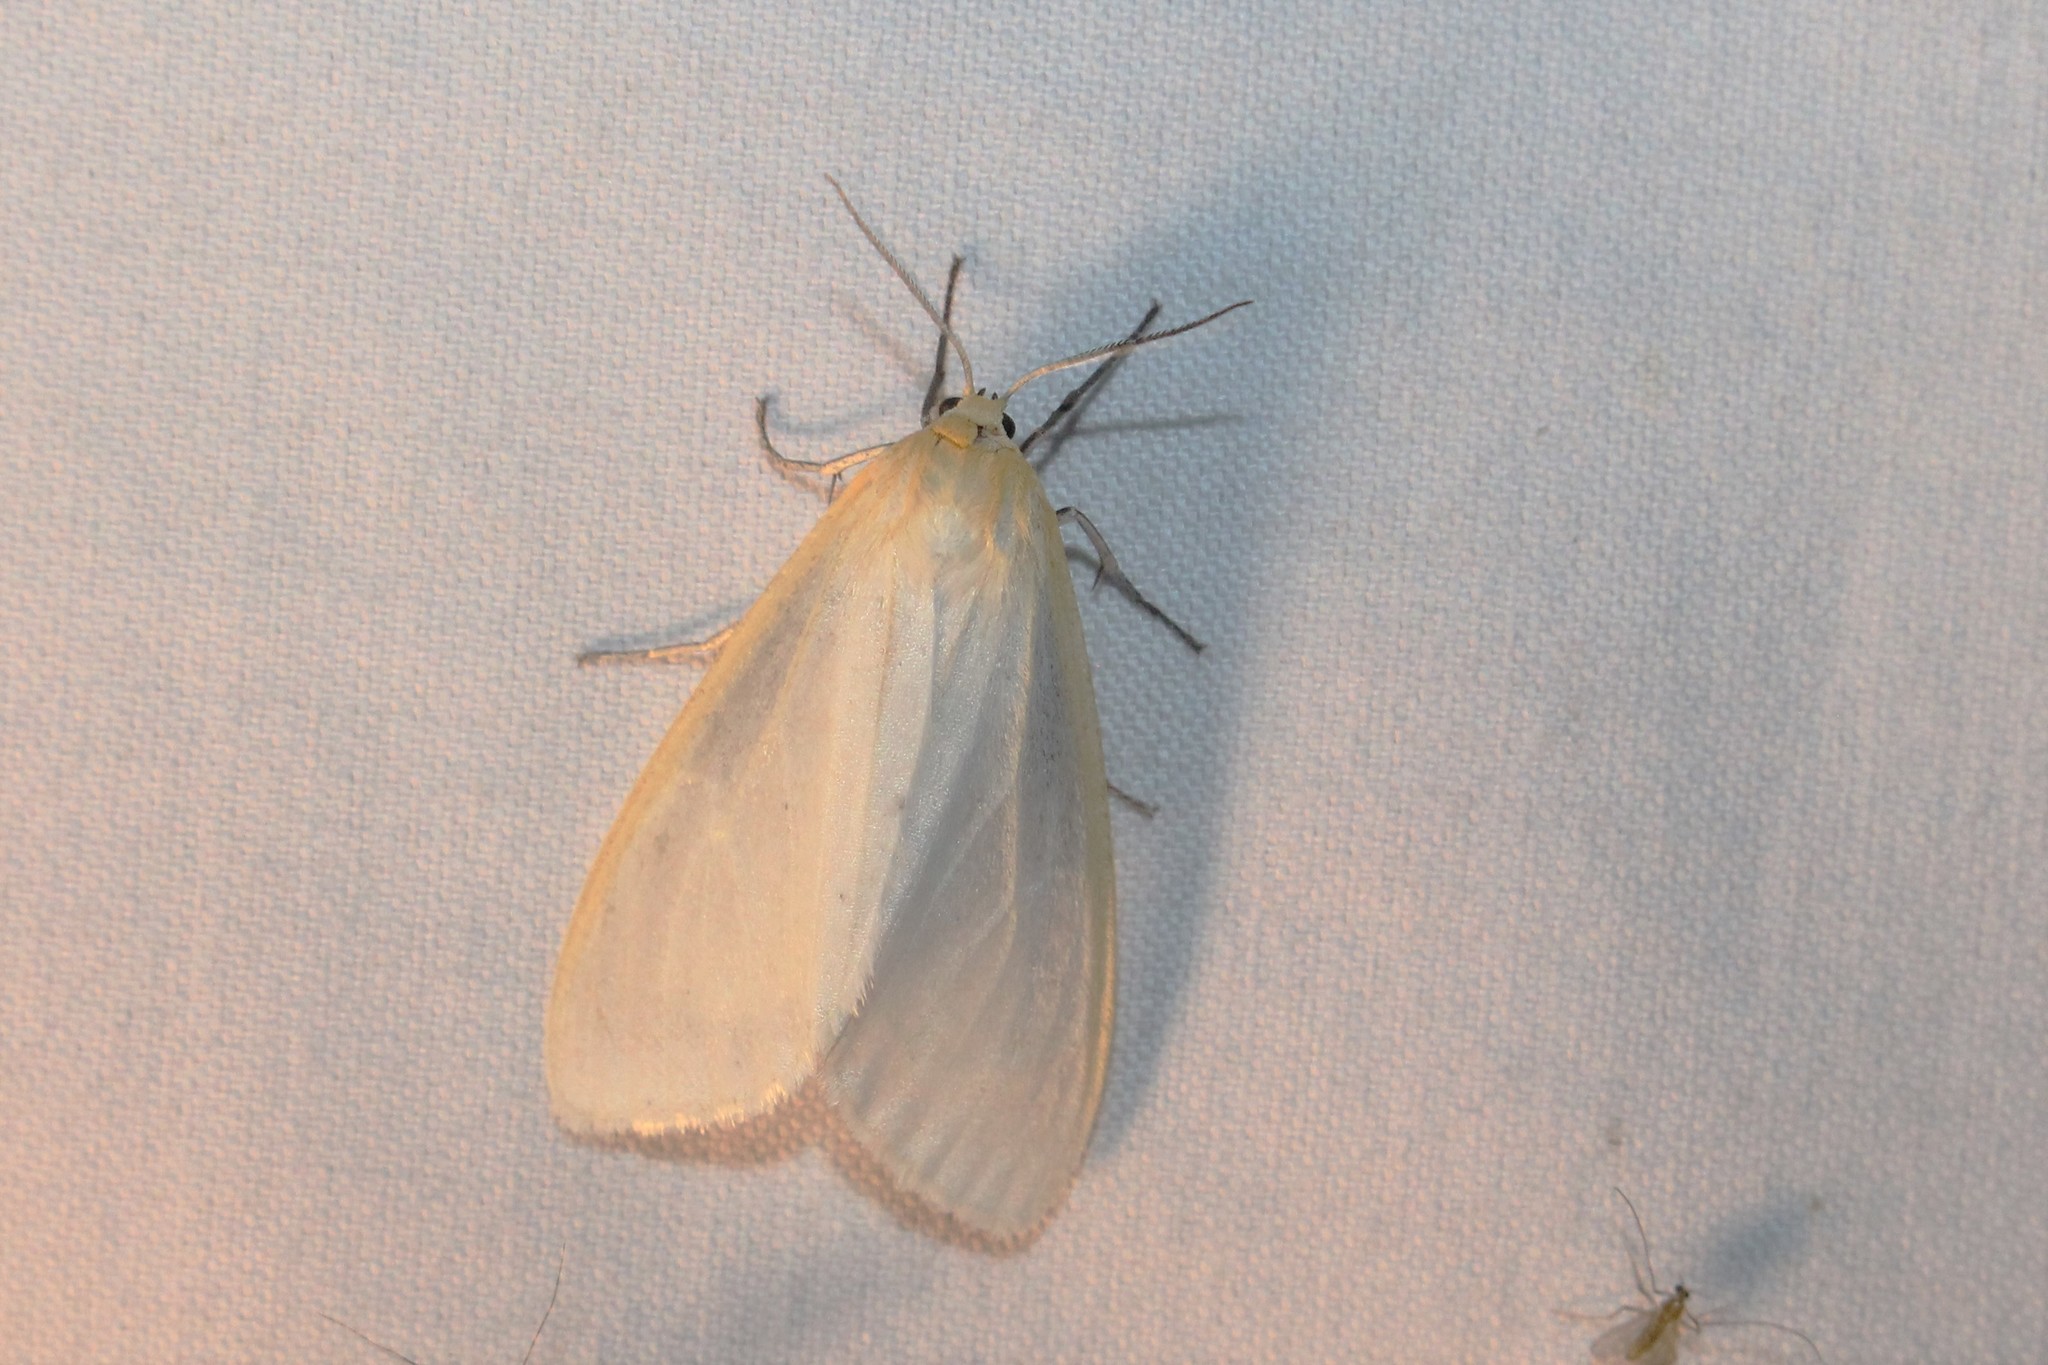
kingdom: Animalia
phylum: Arthropoda
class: Insecta
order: Lepidoptera
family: Erebidae
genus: Cycnia
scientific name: Cycnia tenera
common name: Delicate cycnia moth
